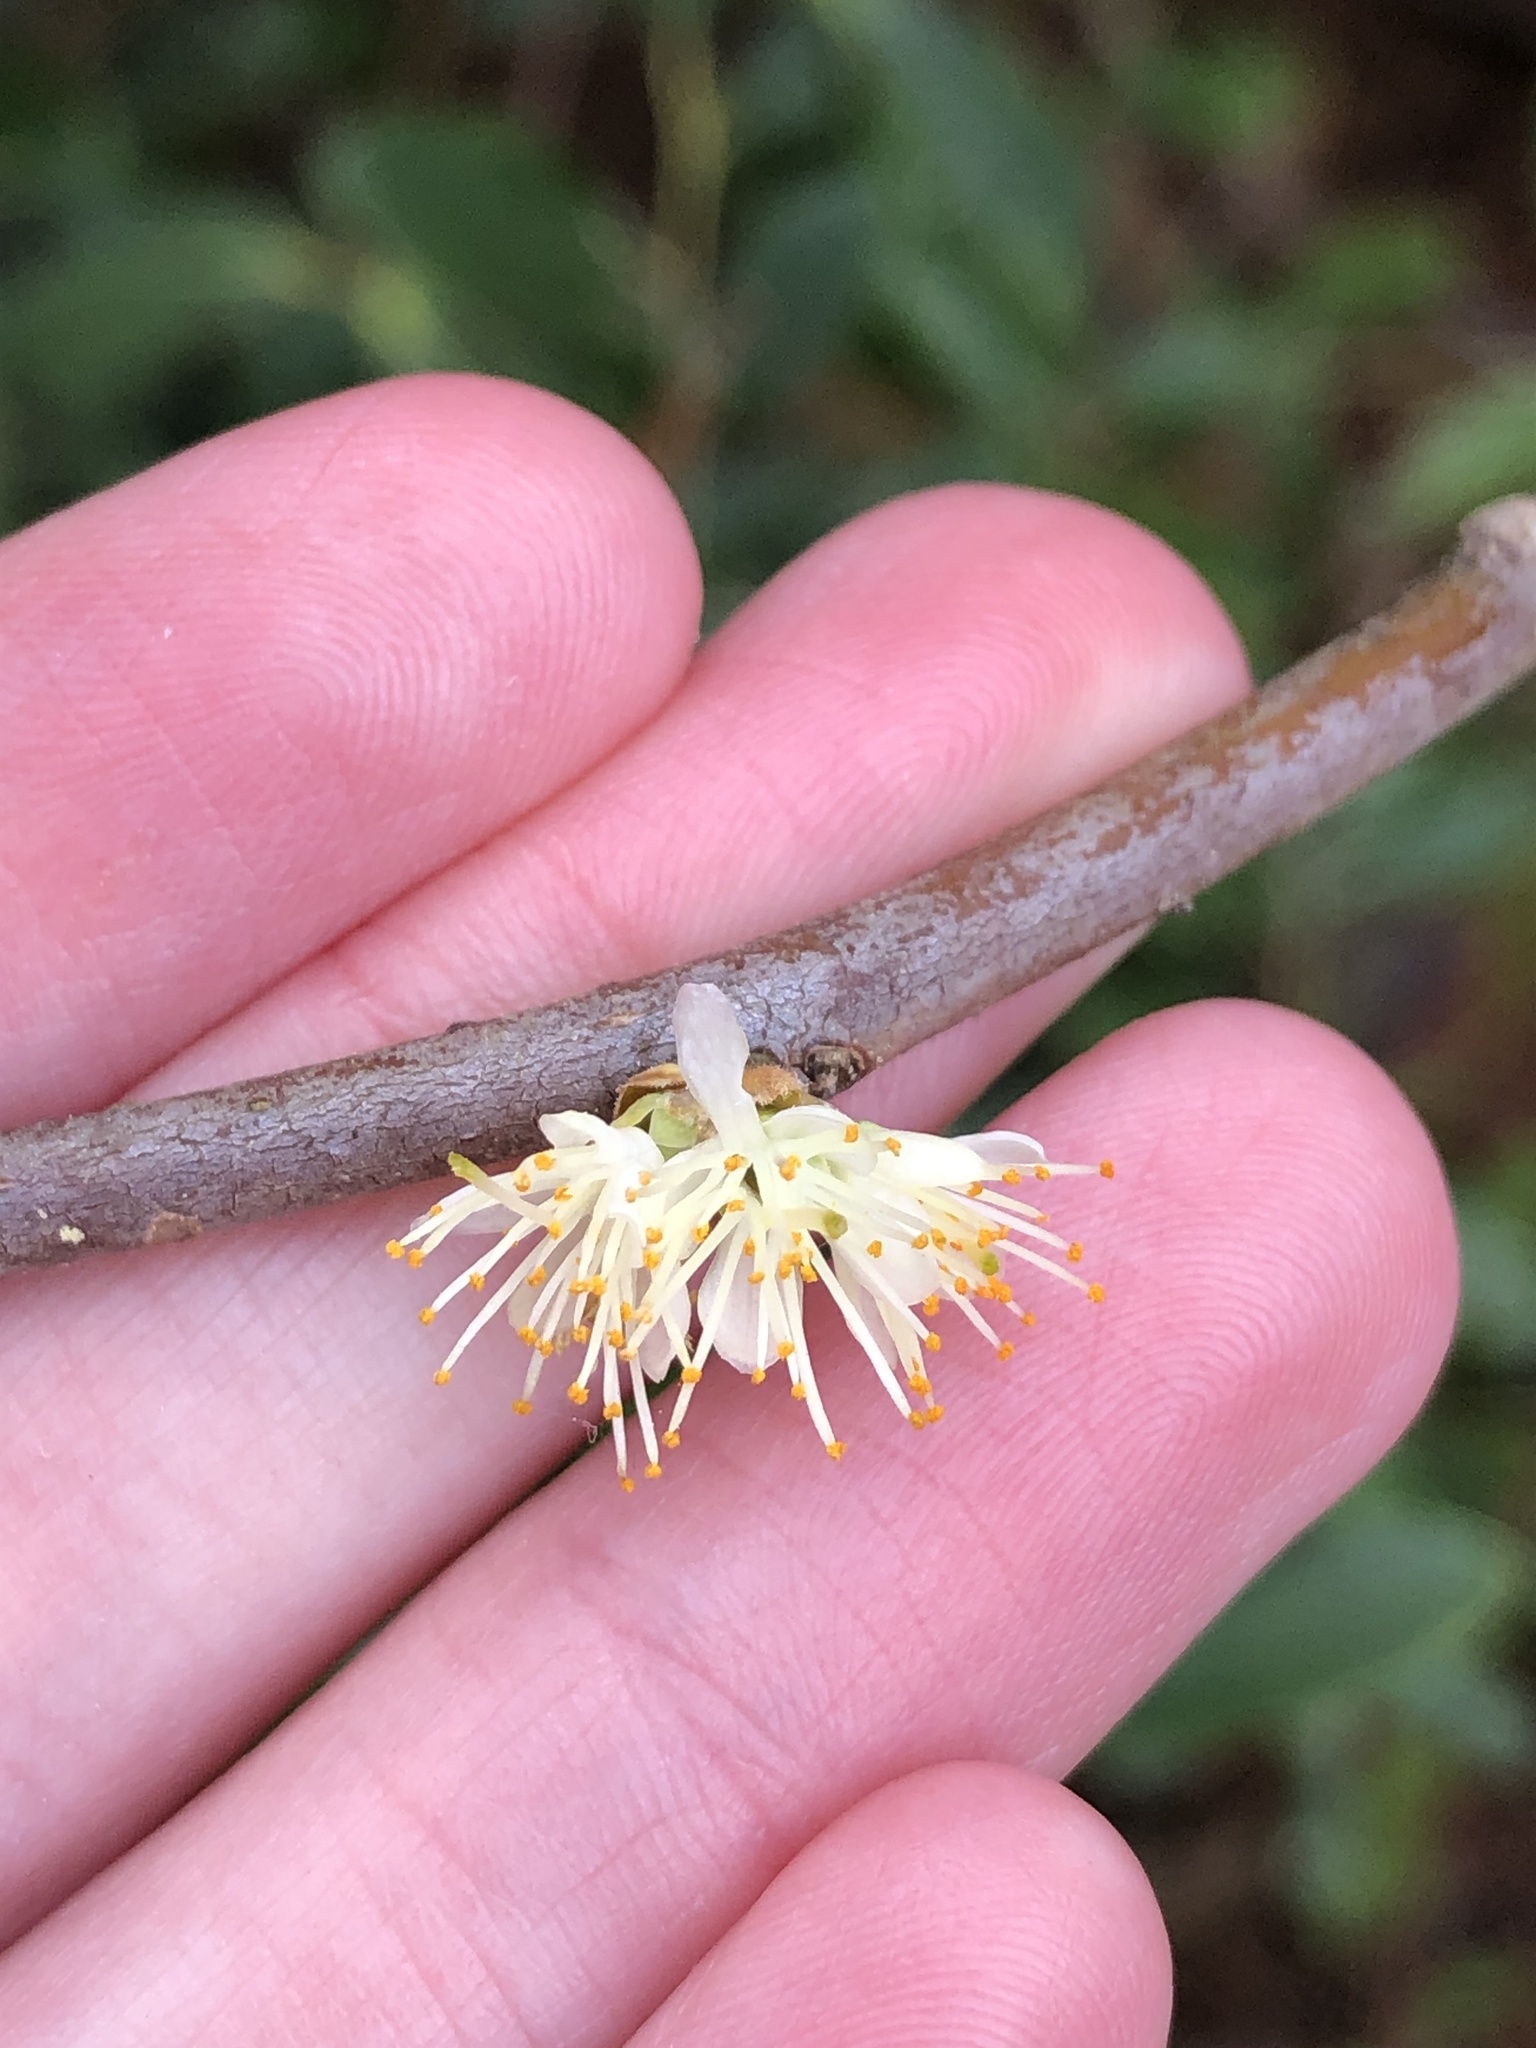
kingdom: Plantae
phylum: Tracheophyta
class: Magnoliopsida
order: Ericales
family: Symplocaceae
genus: Symplocos
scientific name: Symplocos tinctoria
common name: Horse-sugar
